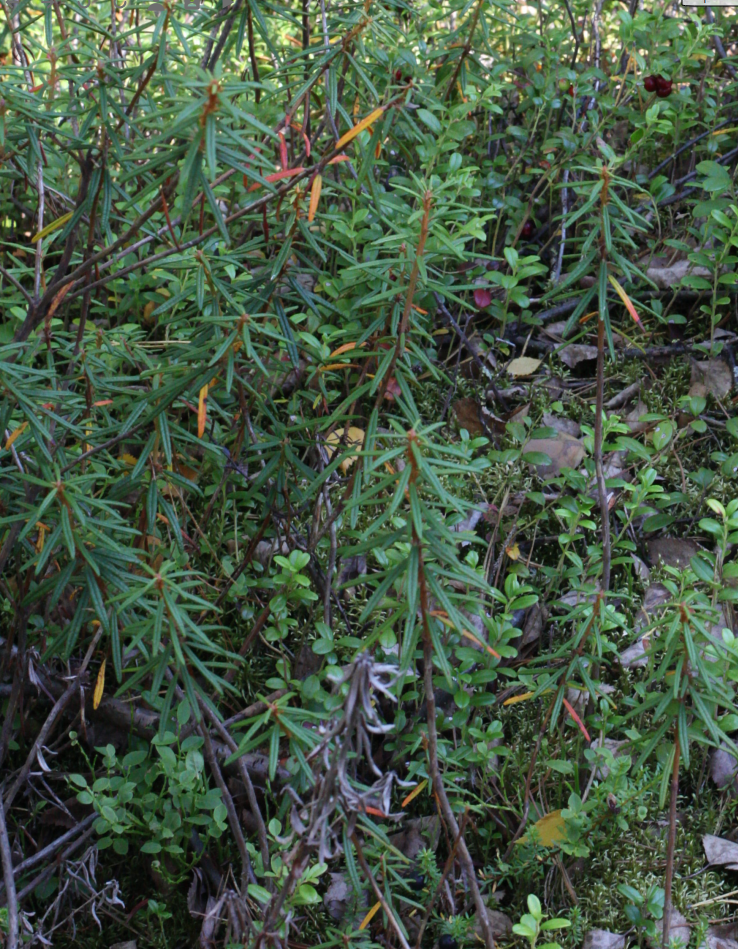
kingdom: Plantae
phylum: Tracheophyta
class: Magnoliopsida
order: Ericales
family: Ericaceae
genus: Rhododendron
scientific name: Rhododendron tomentosum
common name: Marsh labrador tea
